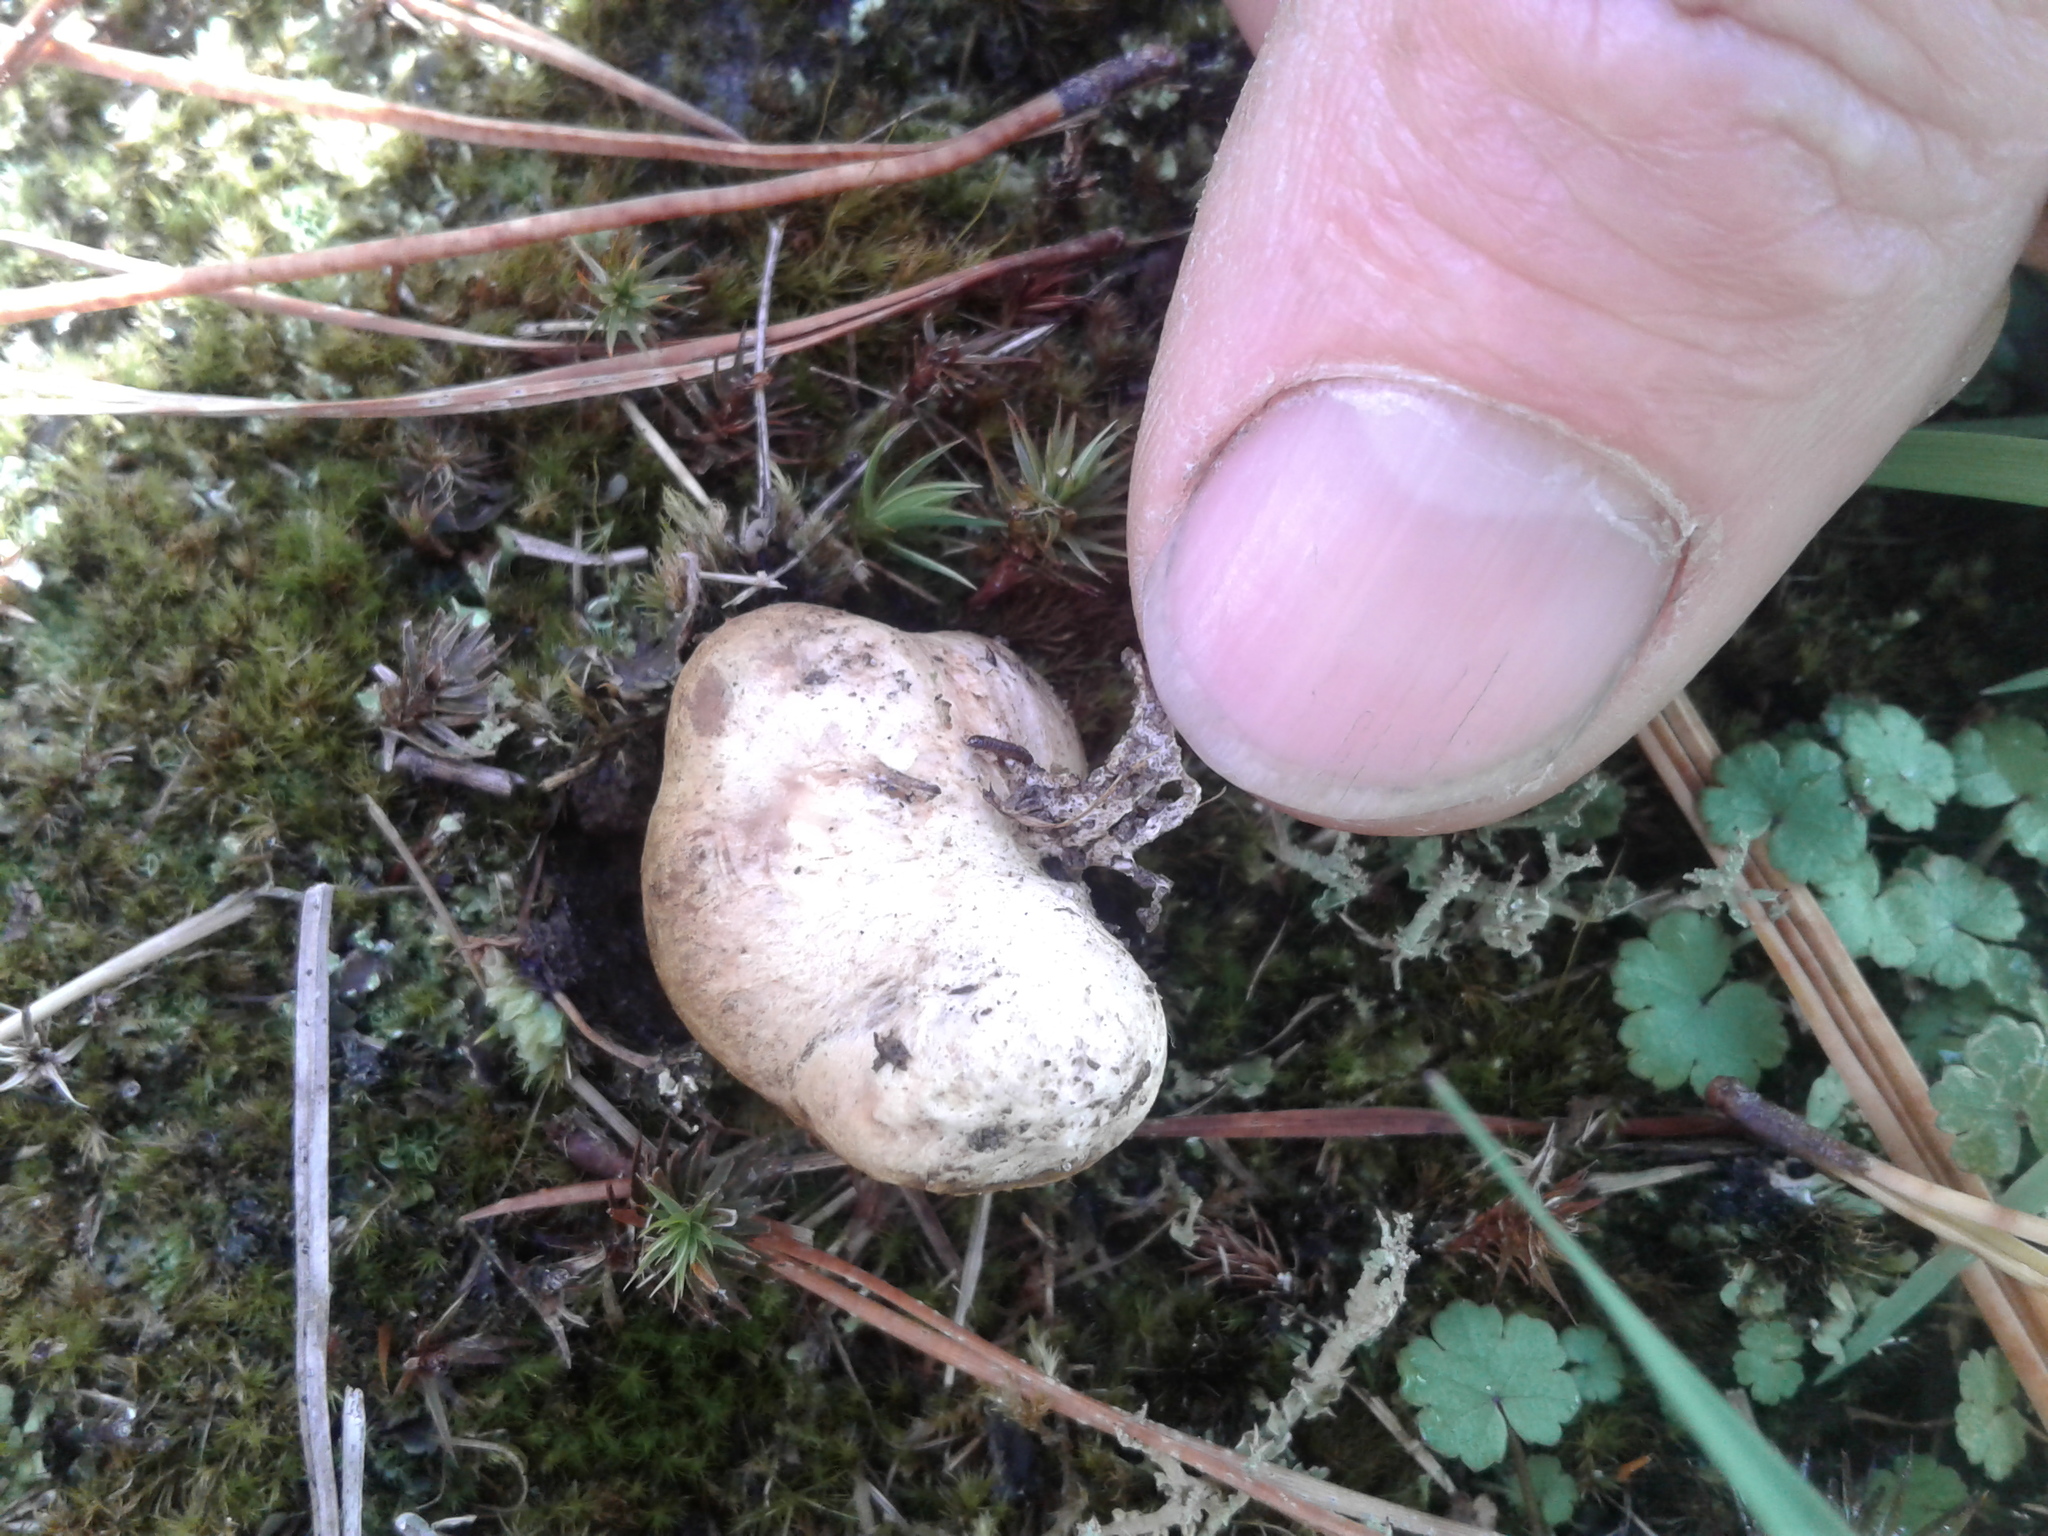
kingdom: Fungi
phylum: Basidiomycota
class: Agaricomycetes
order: Boletales
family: Sclerodermataceae
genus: Scleroderma
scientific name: Scleroderma bovista
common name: Potato earthball
